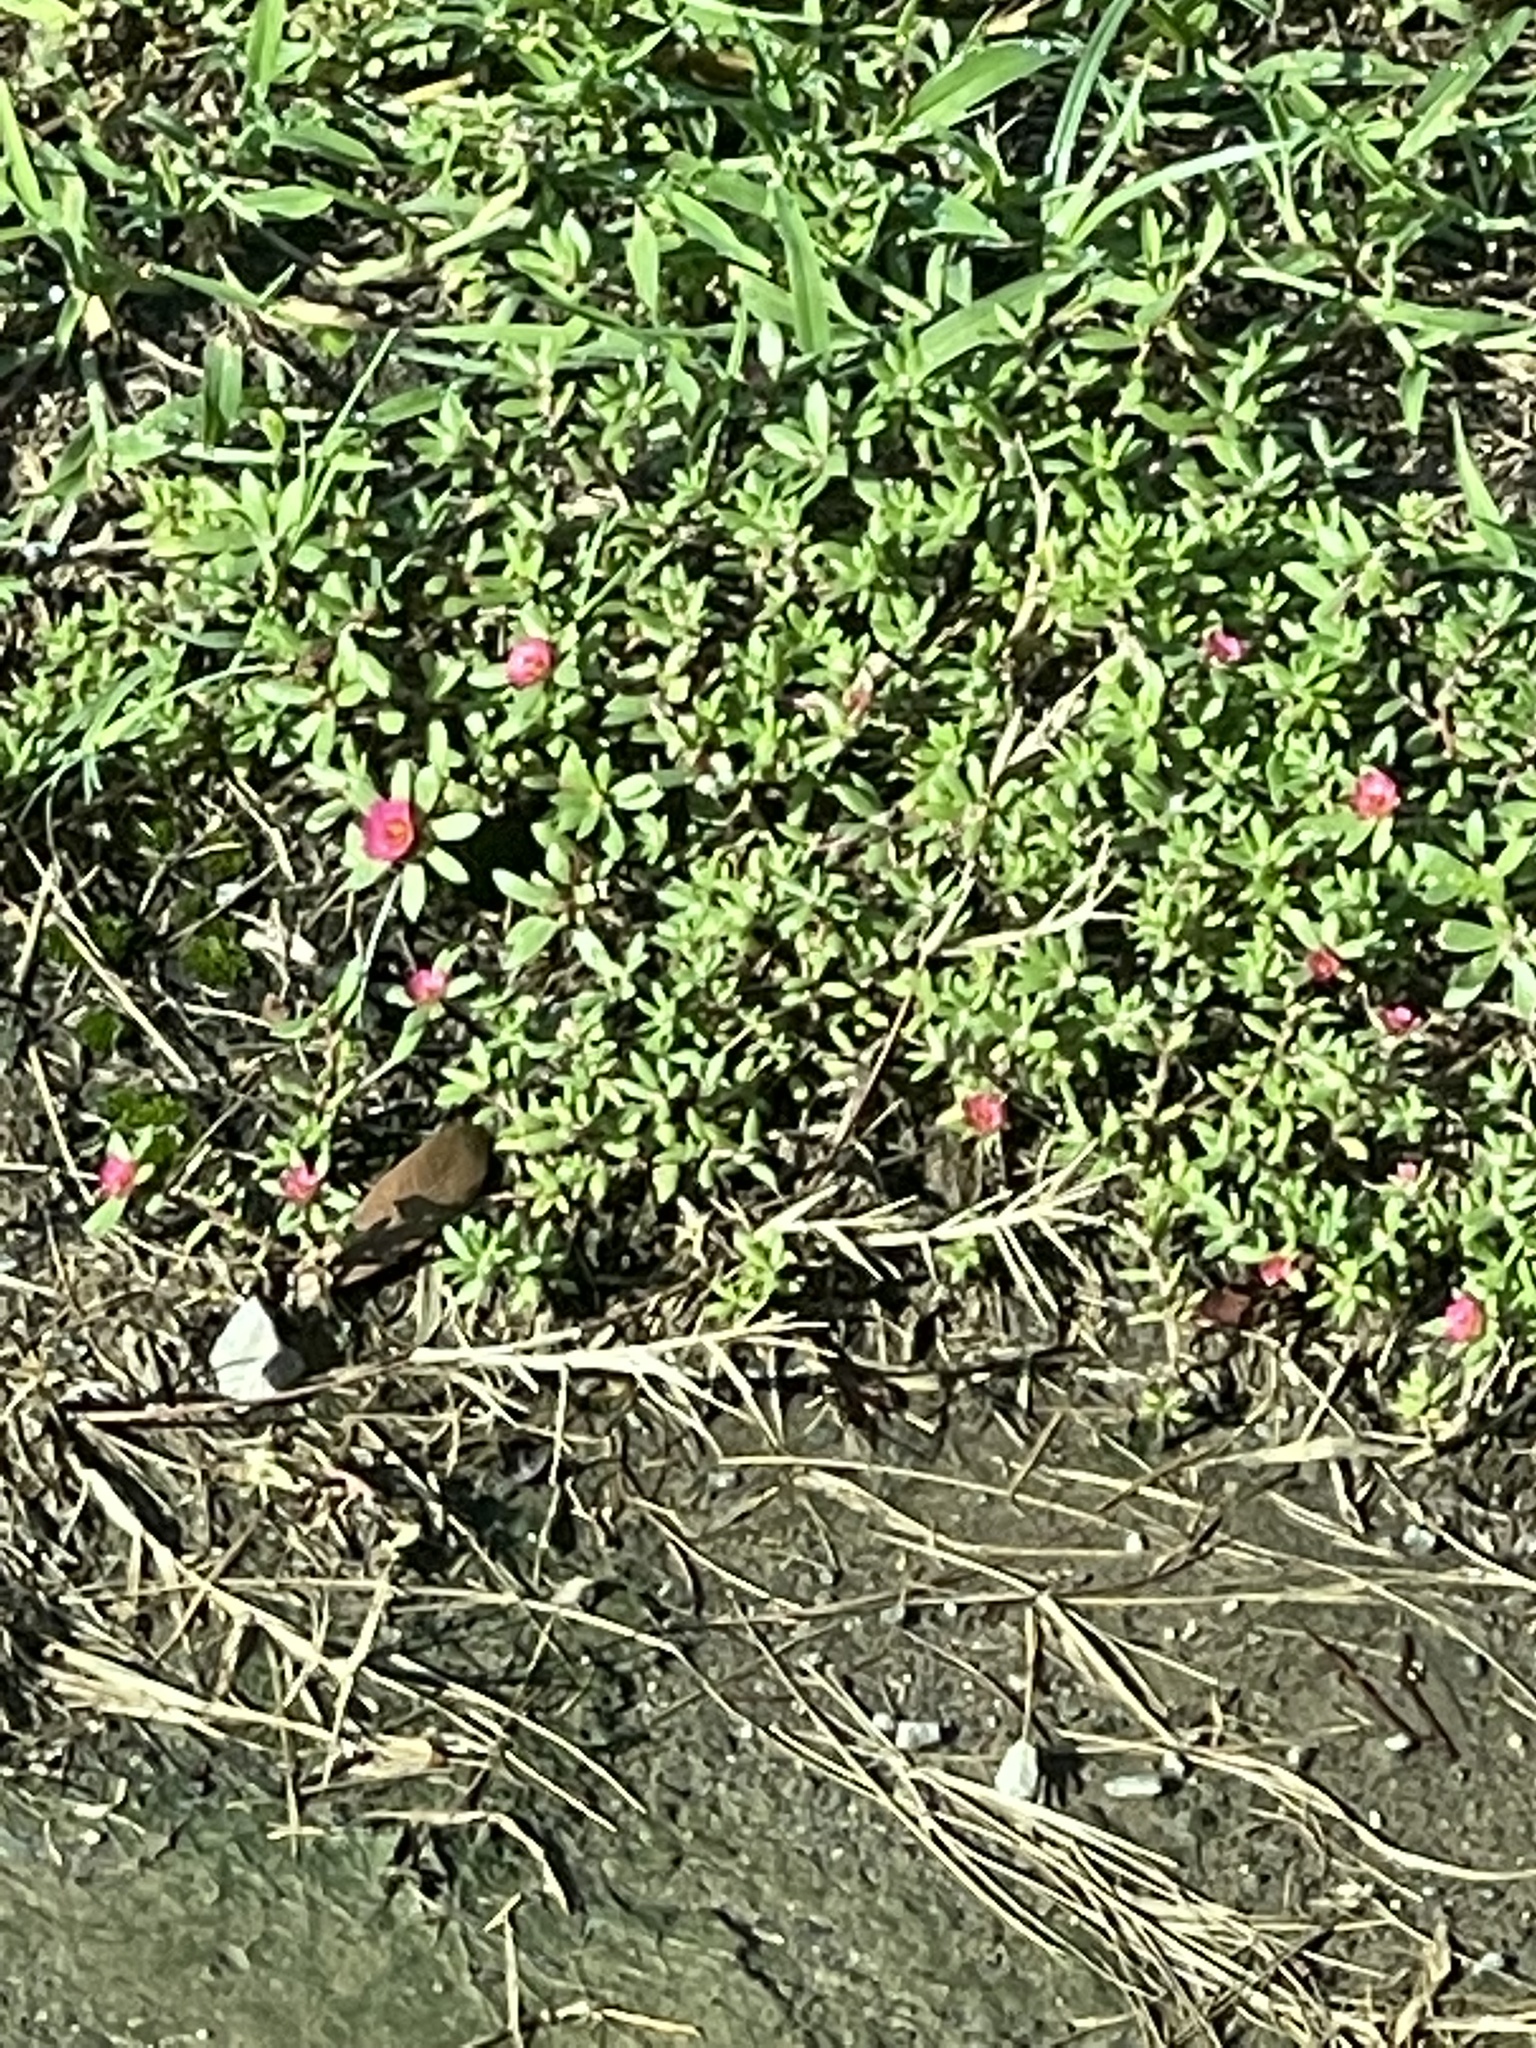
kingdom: Plantae
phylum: Tracheophyta
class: Magnoliopsida
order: Caryophyllales
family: Portulacaceae
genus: Portulaca
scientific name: Portulaca amilis
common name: Paraguayan purslane
